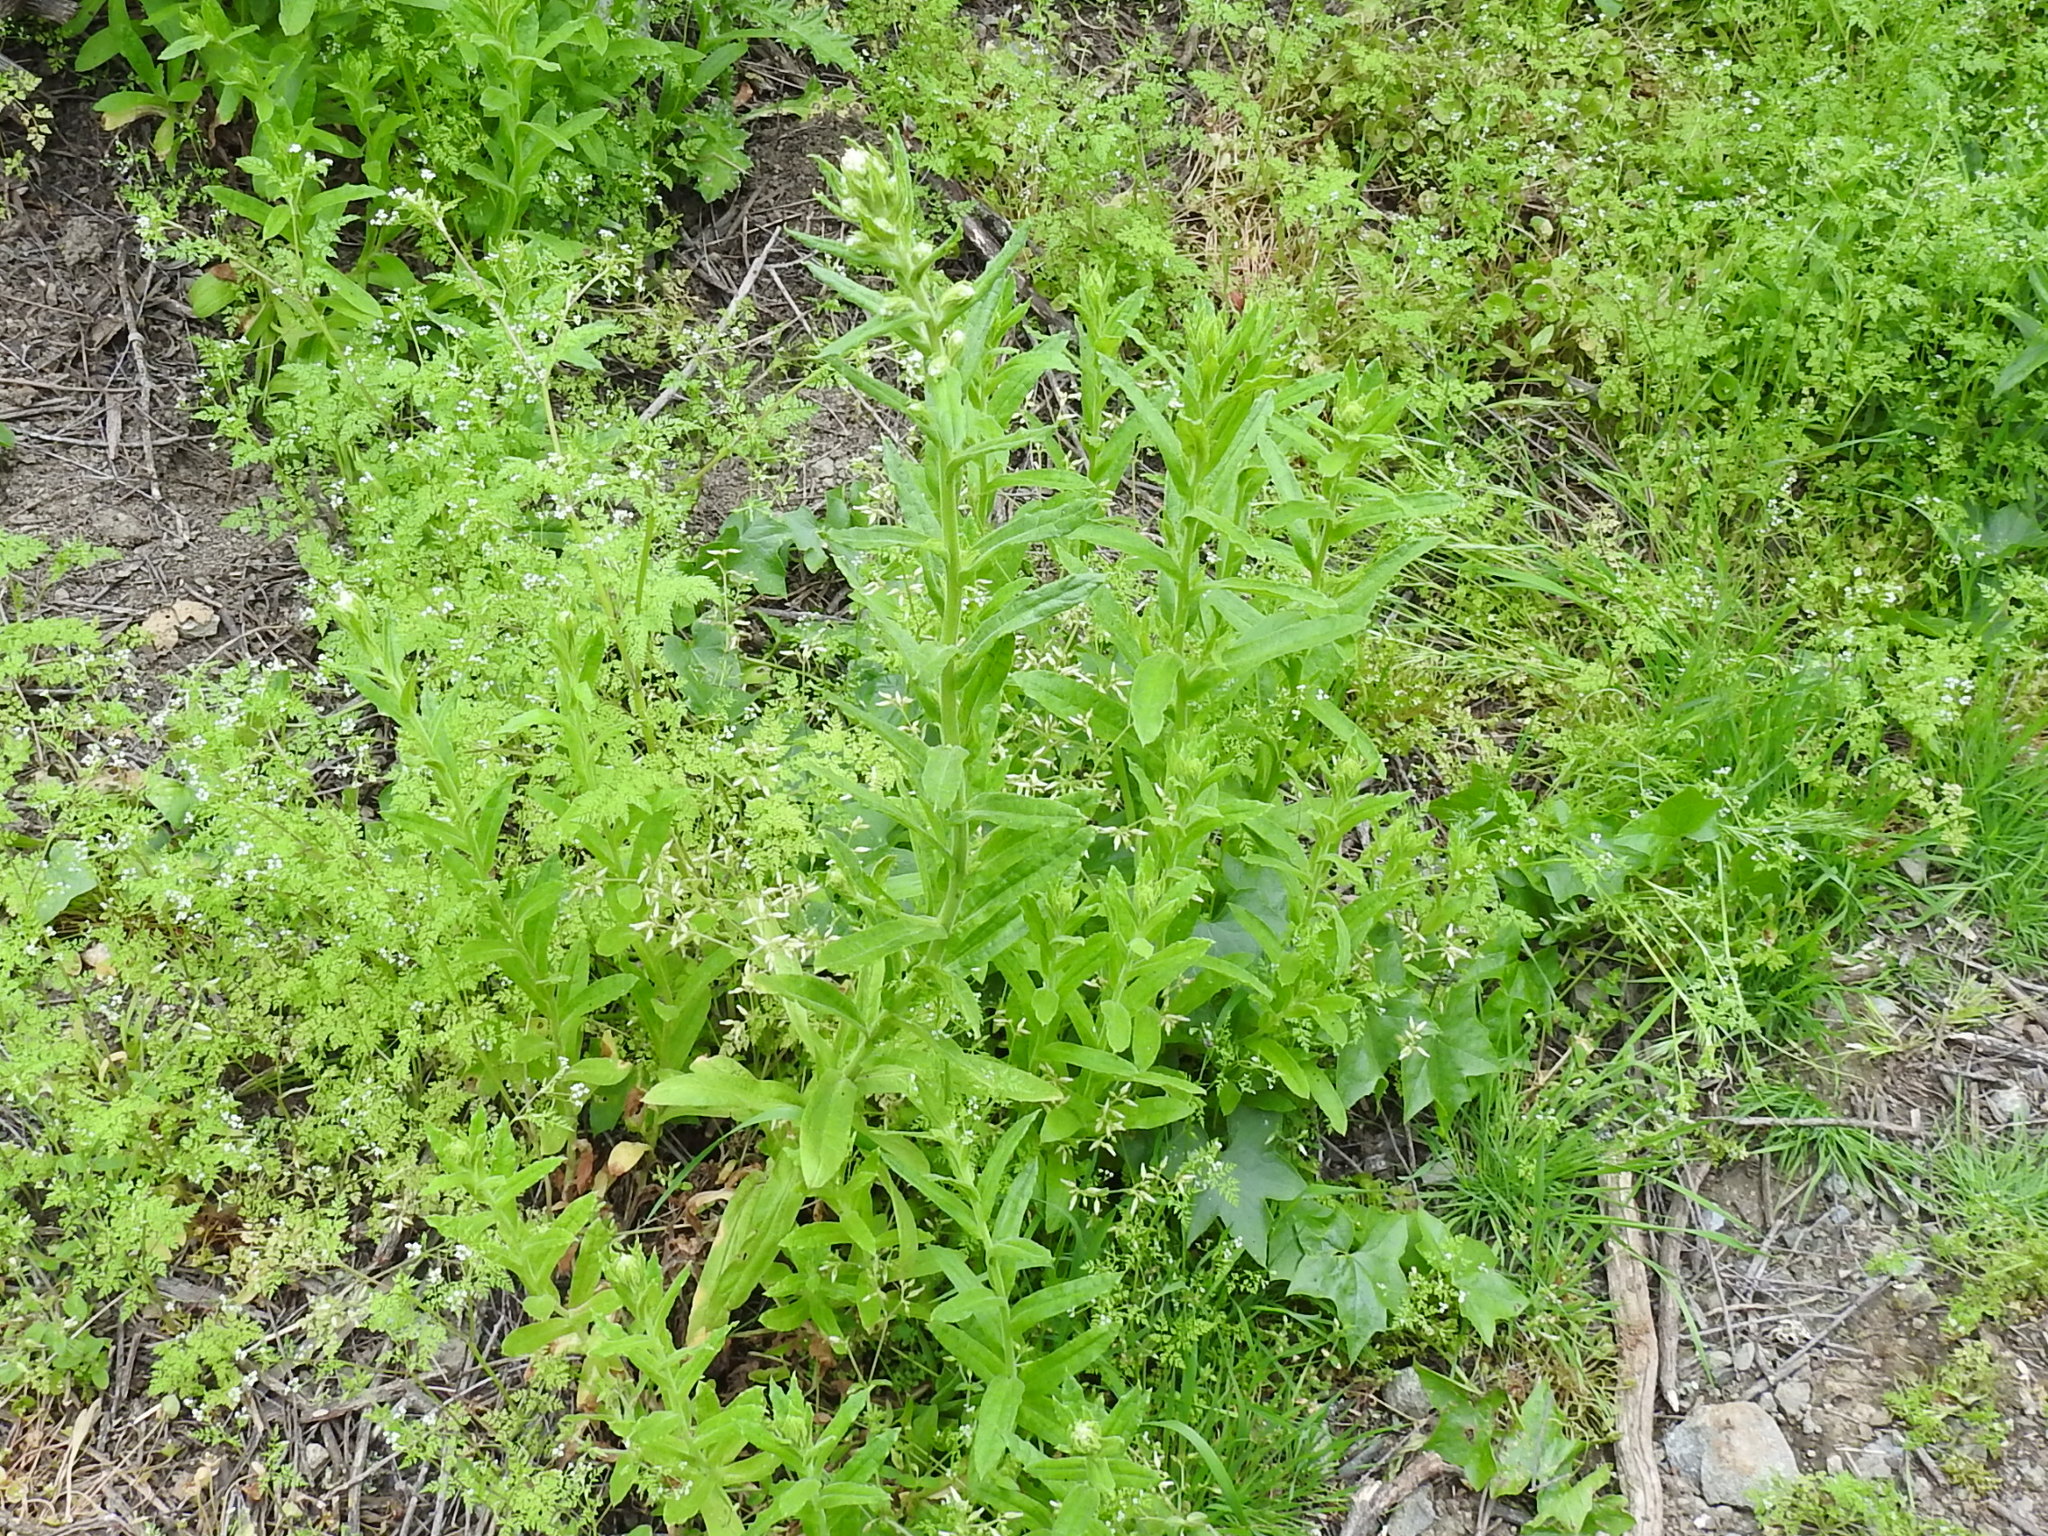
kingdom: Plantae
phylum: Tracheophyta
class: Magnoliopsida
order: Asterales
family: Asteraceae
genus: Pseudognaphalium
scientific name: Pseudognaphalium californicum
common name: California rabbit-tobacco
